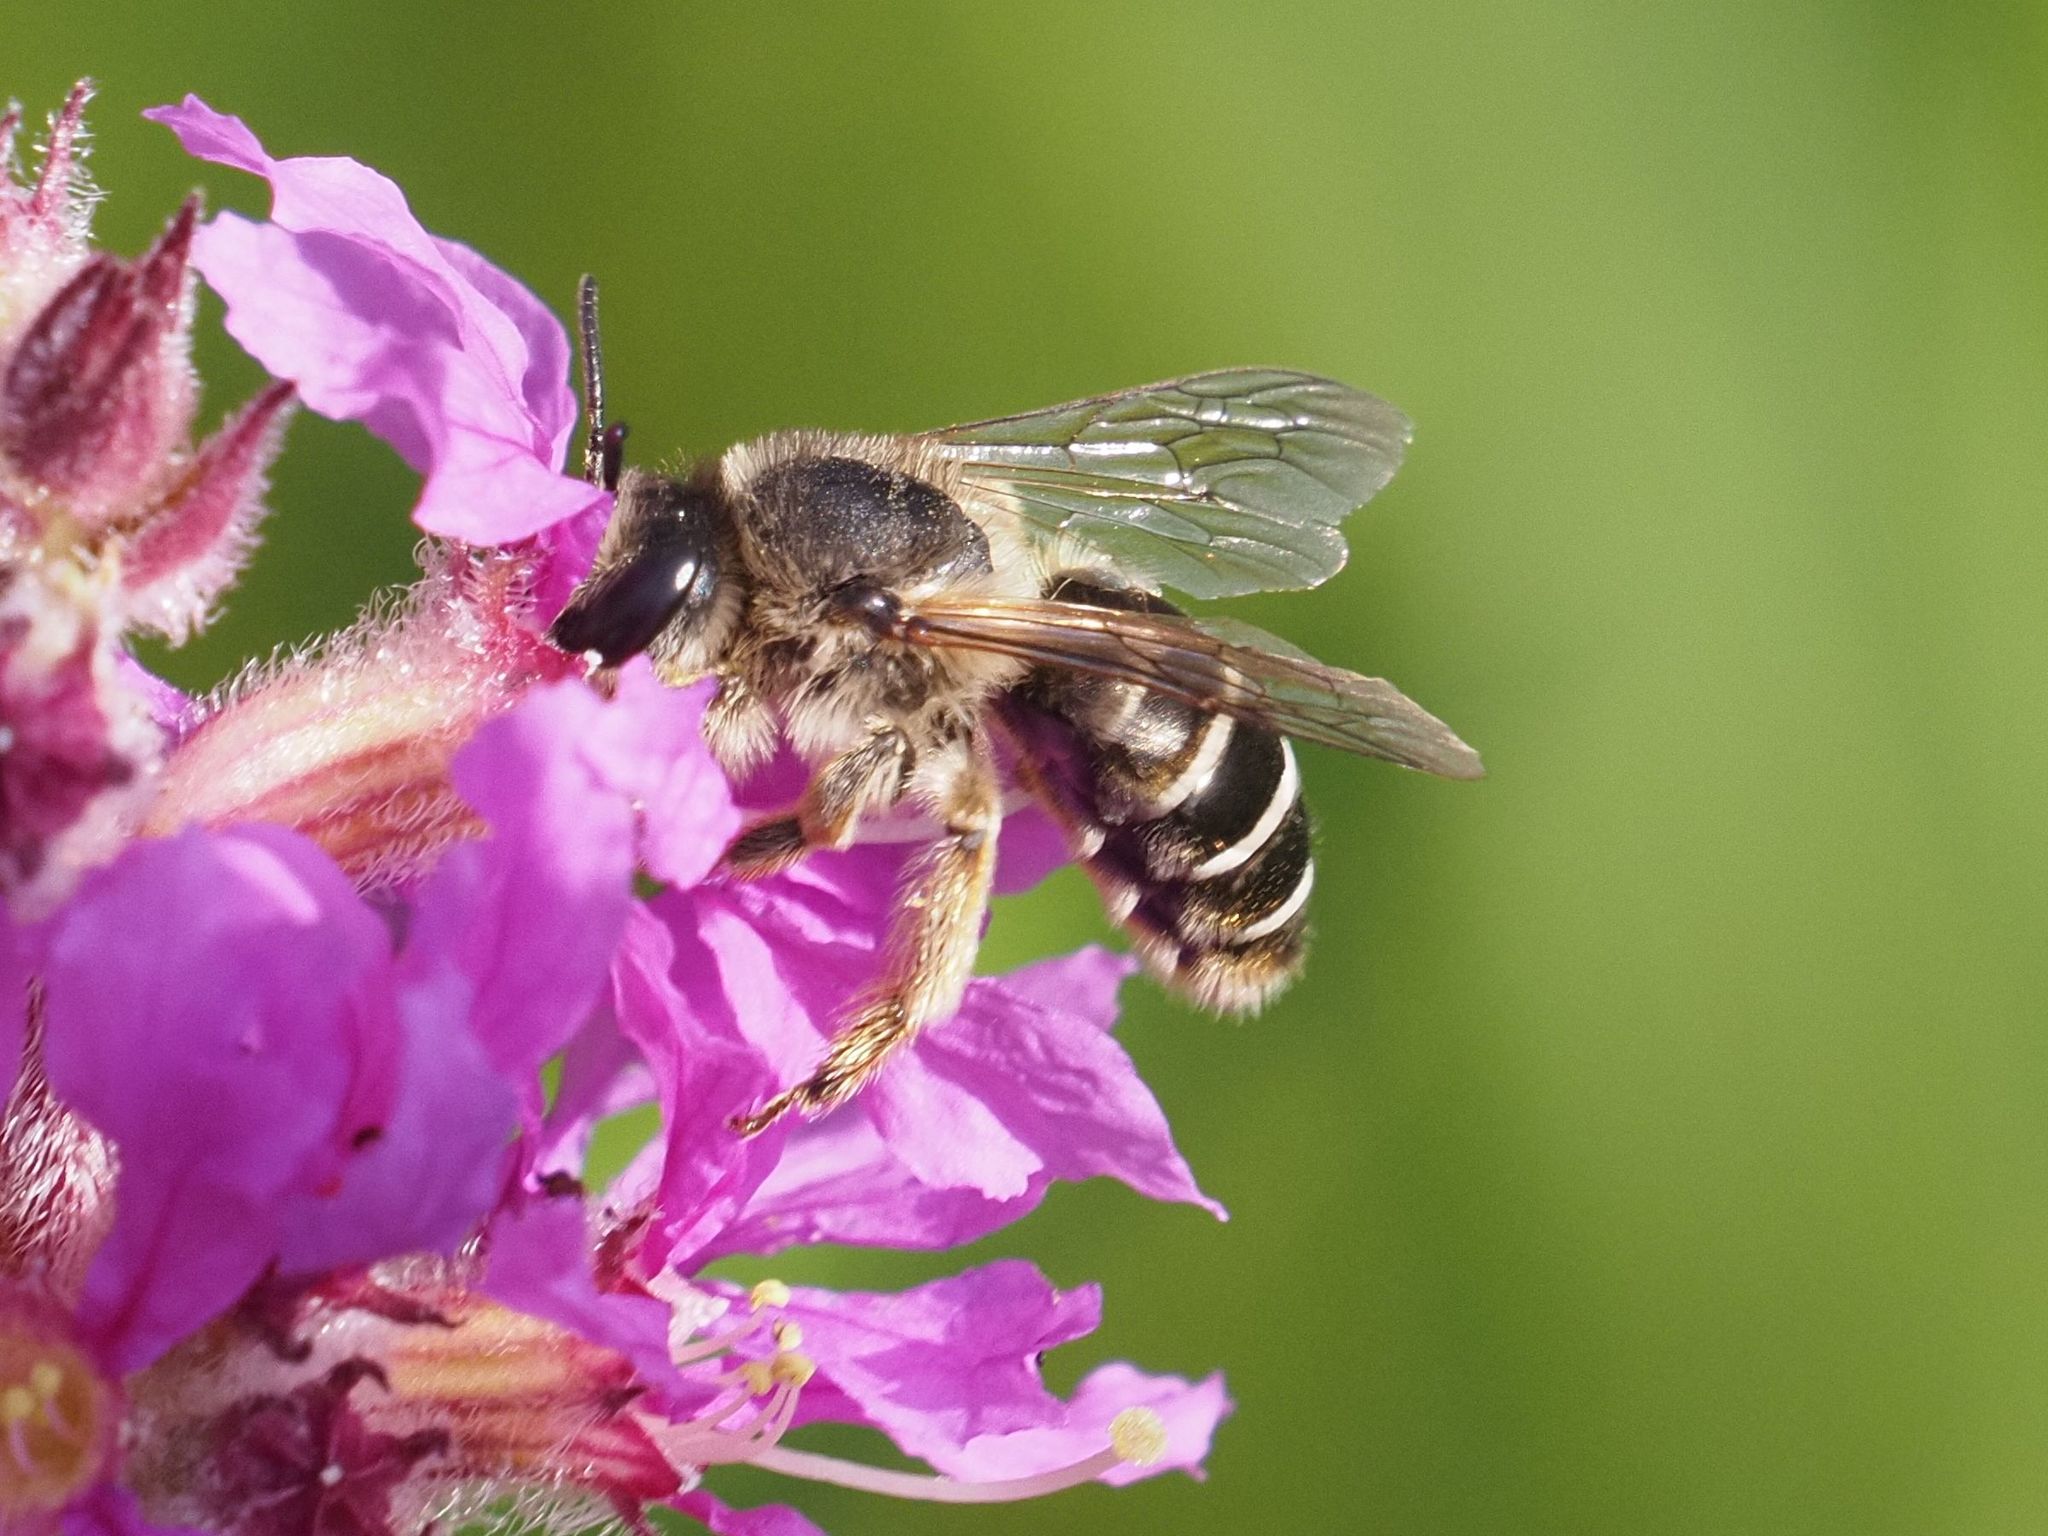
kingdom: Animalia
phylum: Arthropoda
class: Insecta
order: Hymenoptera
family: Melittidae
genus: Melitta
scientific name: Melitta nigricans
